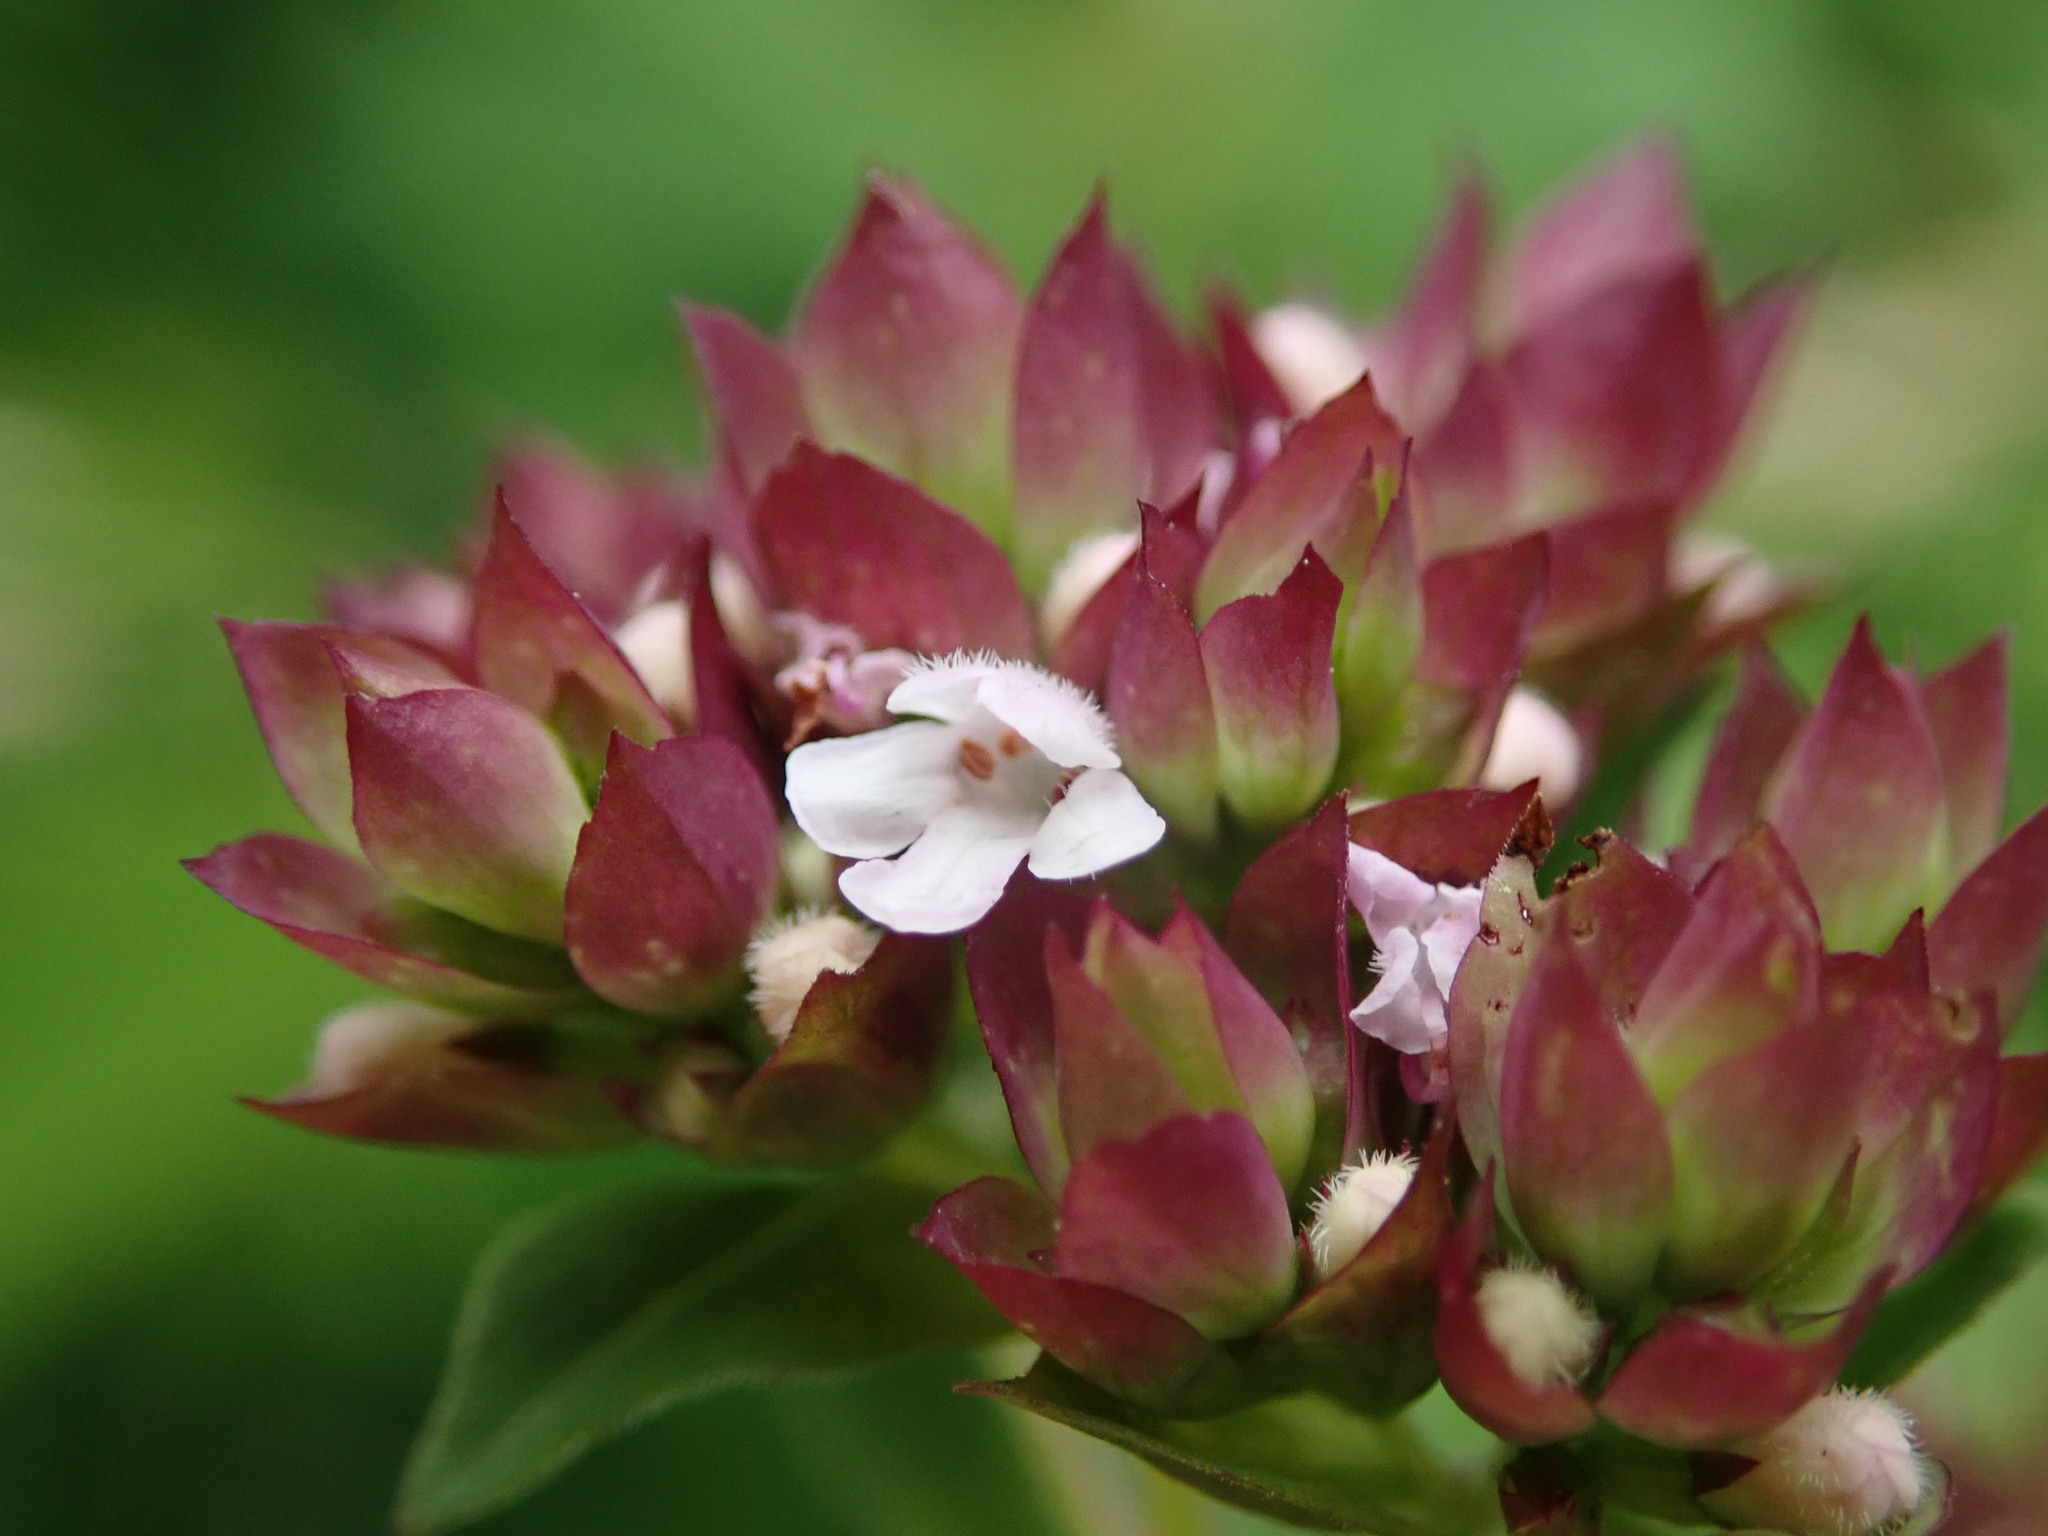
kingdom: Plantae
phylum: Tracheophyta
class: Magnoliopsida
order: Lamiales
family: Lamiaceae
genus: Origanum
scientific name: Origanum vulgare
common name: Wild marjoram
